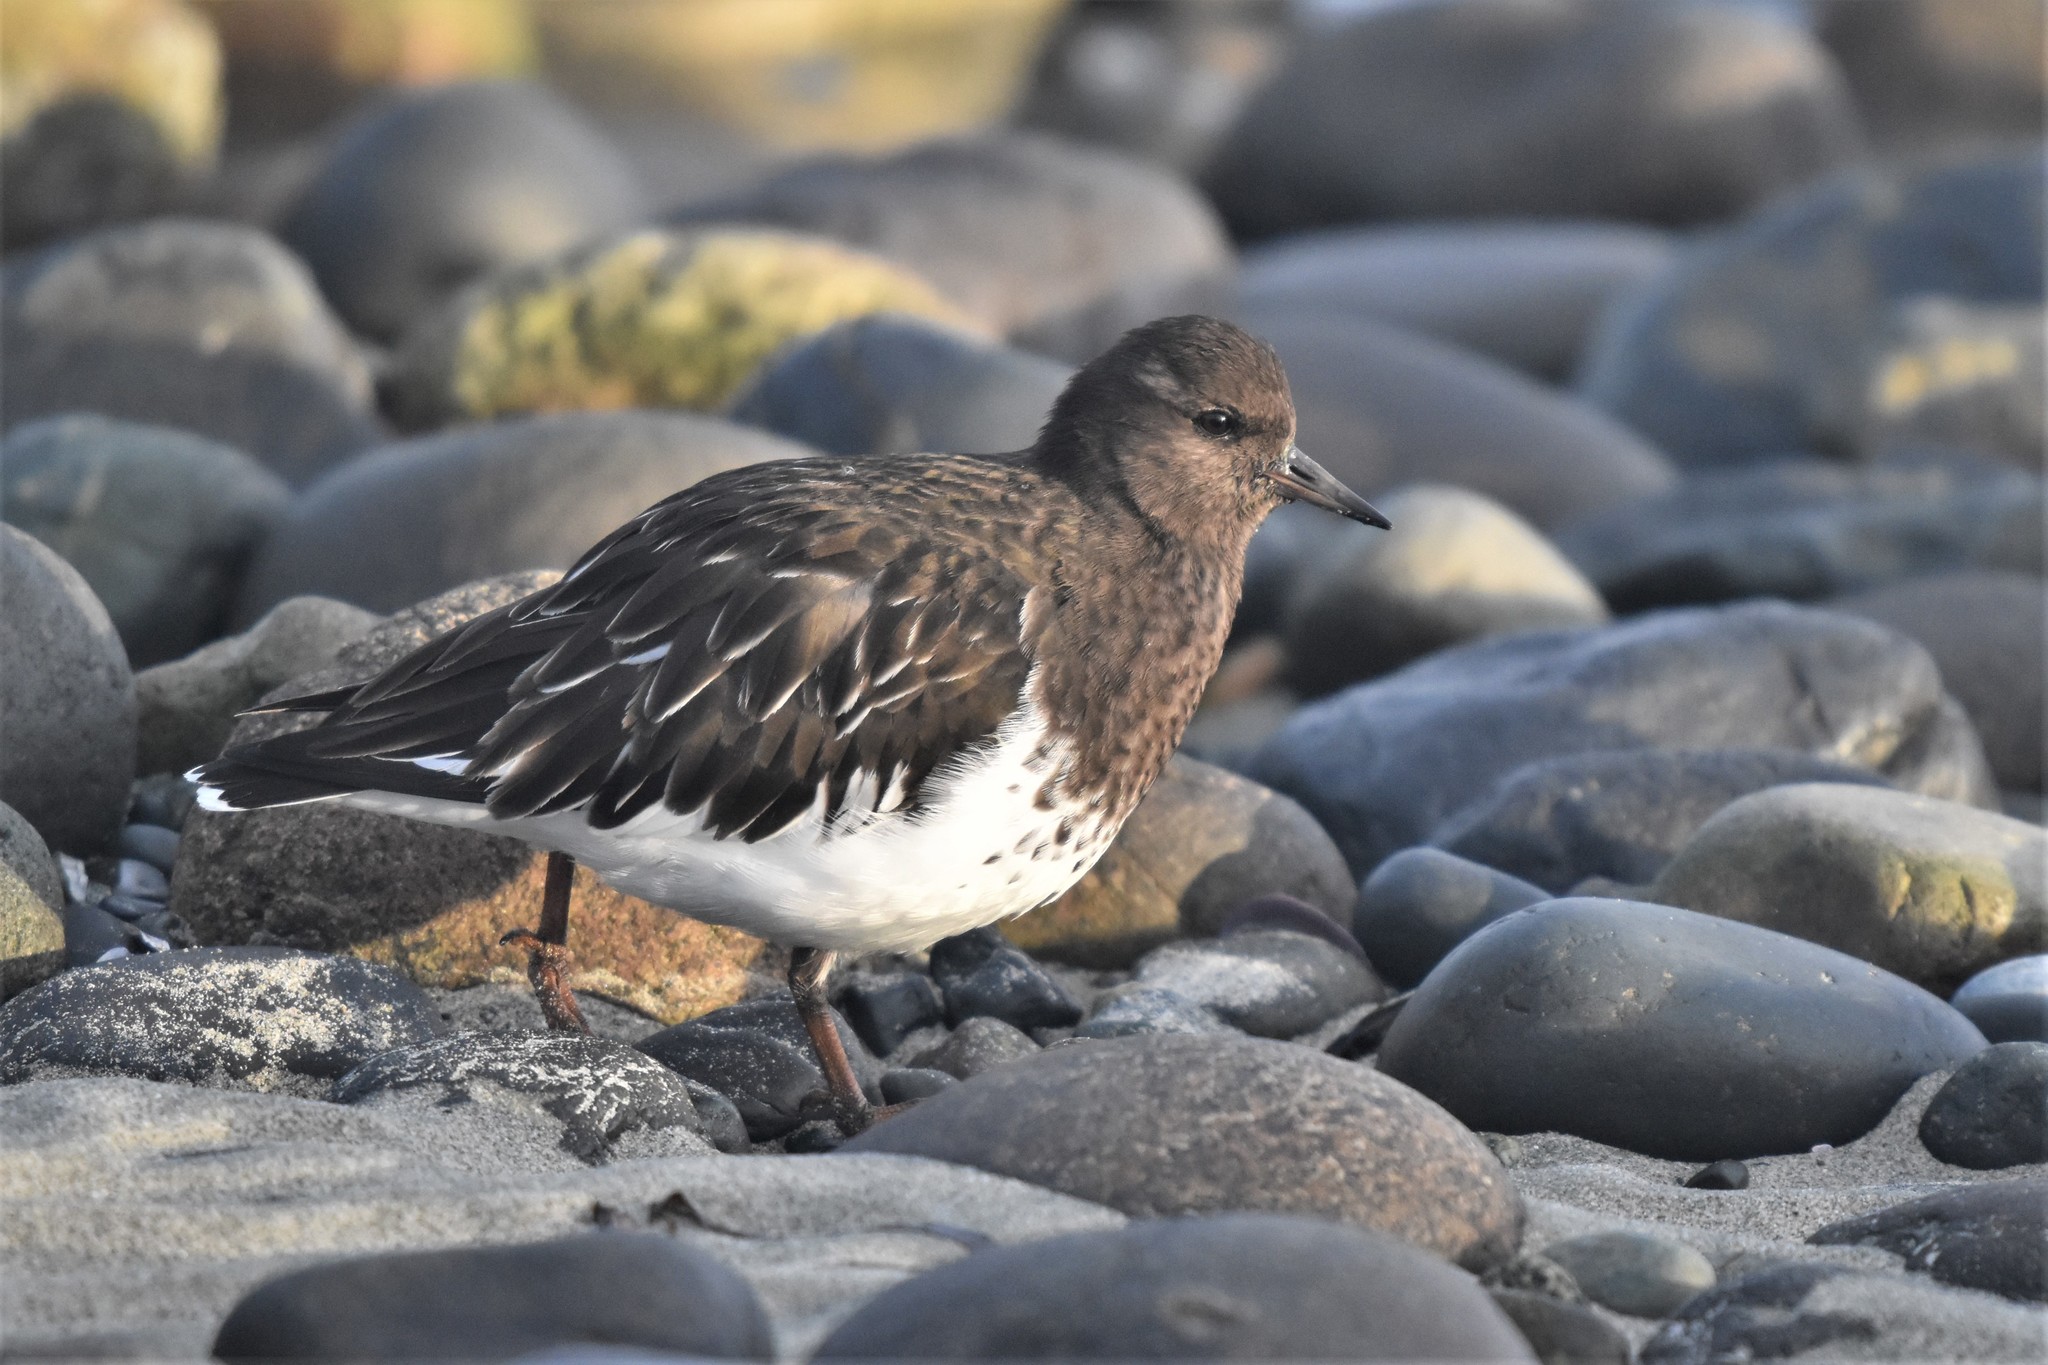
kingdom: Animalia
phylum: Chordata
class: Aves
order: Charadriiformes
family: Scolopacidae
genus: Arenaria
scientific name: Arenaria melanocephala
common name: Black turnstone
